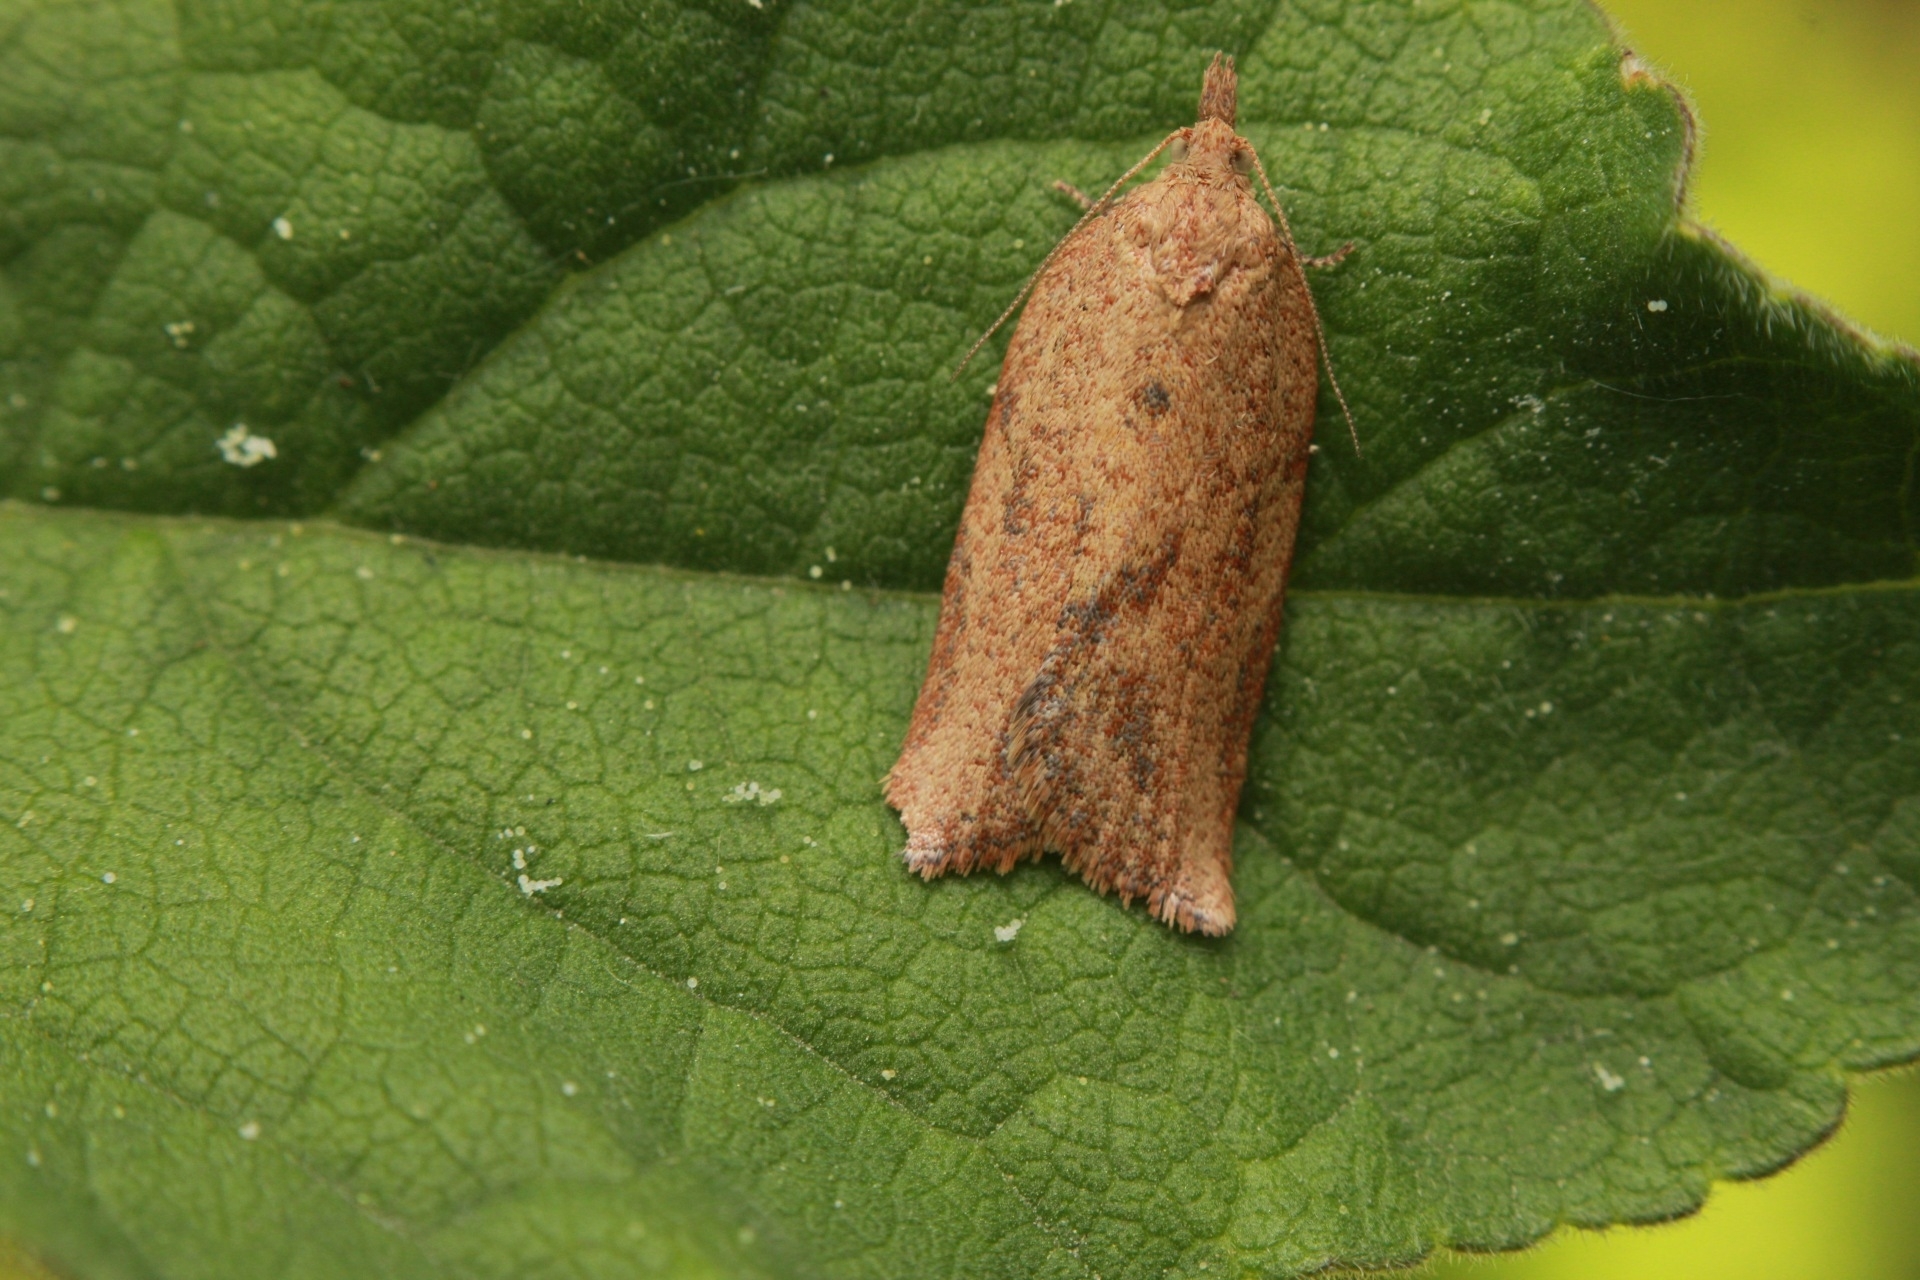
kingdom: Animalia
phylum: Arthropoda
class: Insecta
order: Lepidoptera
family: Tortricidae
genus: Epiphyas
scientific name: Epiphyas postvittana
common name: Light brown apple moth
